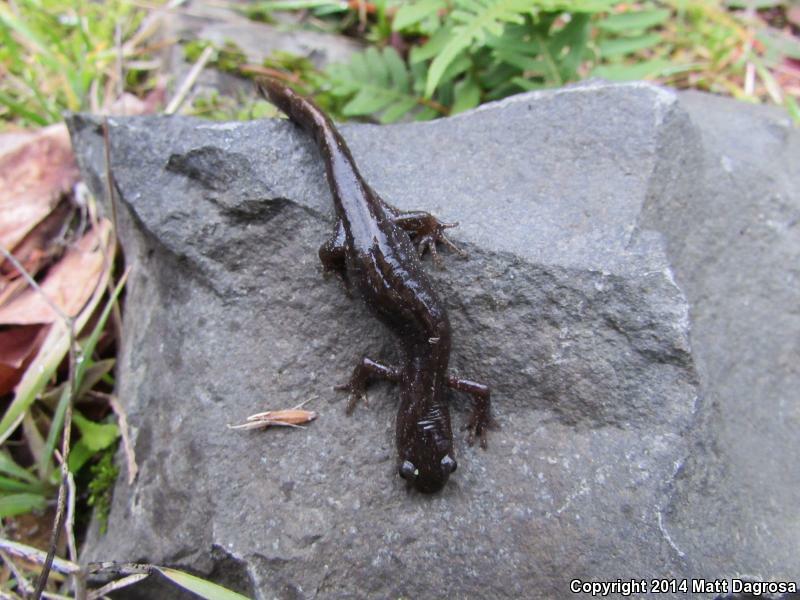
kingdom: Animalia
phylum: Chordata
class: Amphibia
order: Caudata
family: Ambystomatidae
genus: Ambystoma
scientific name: Ambystoma macrodactylum
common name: Long-toed salamander
